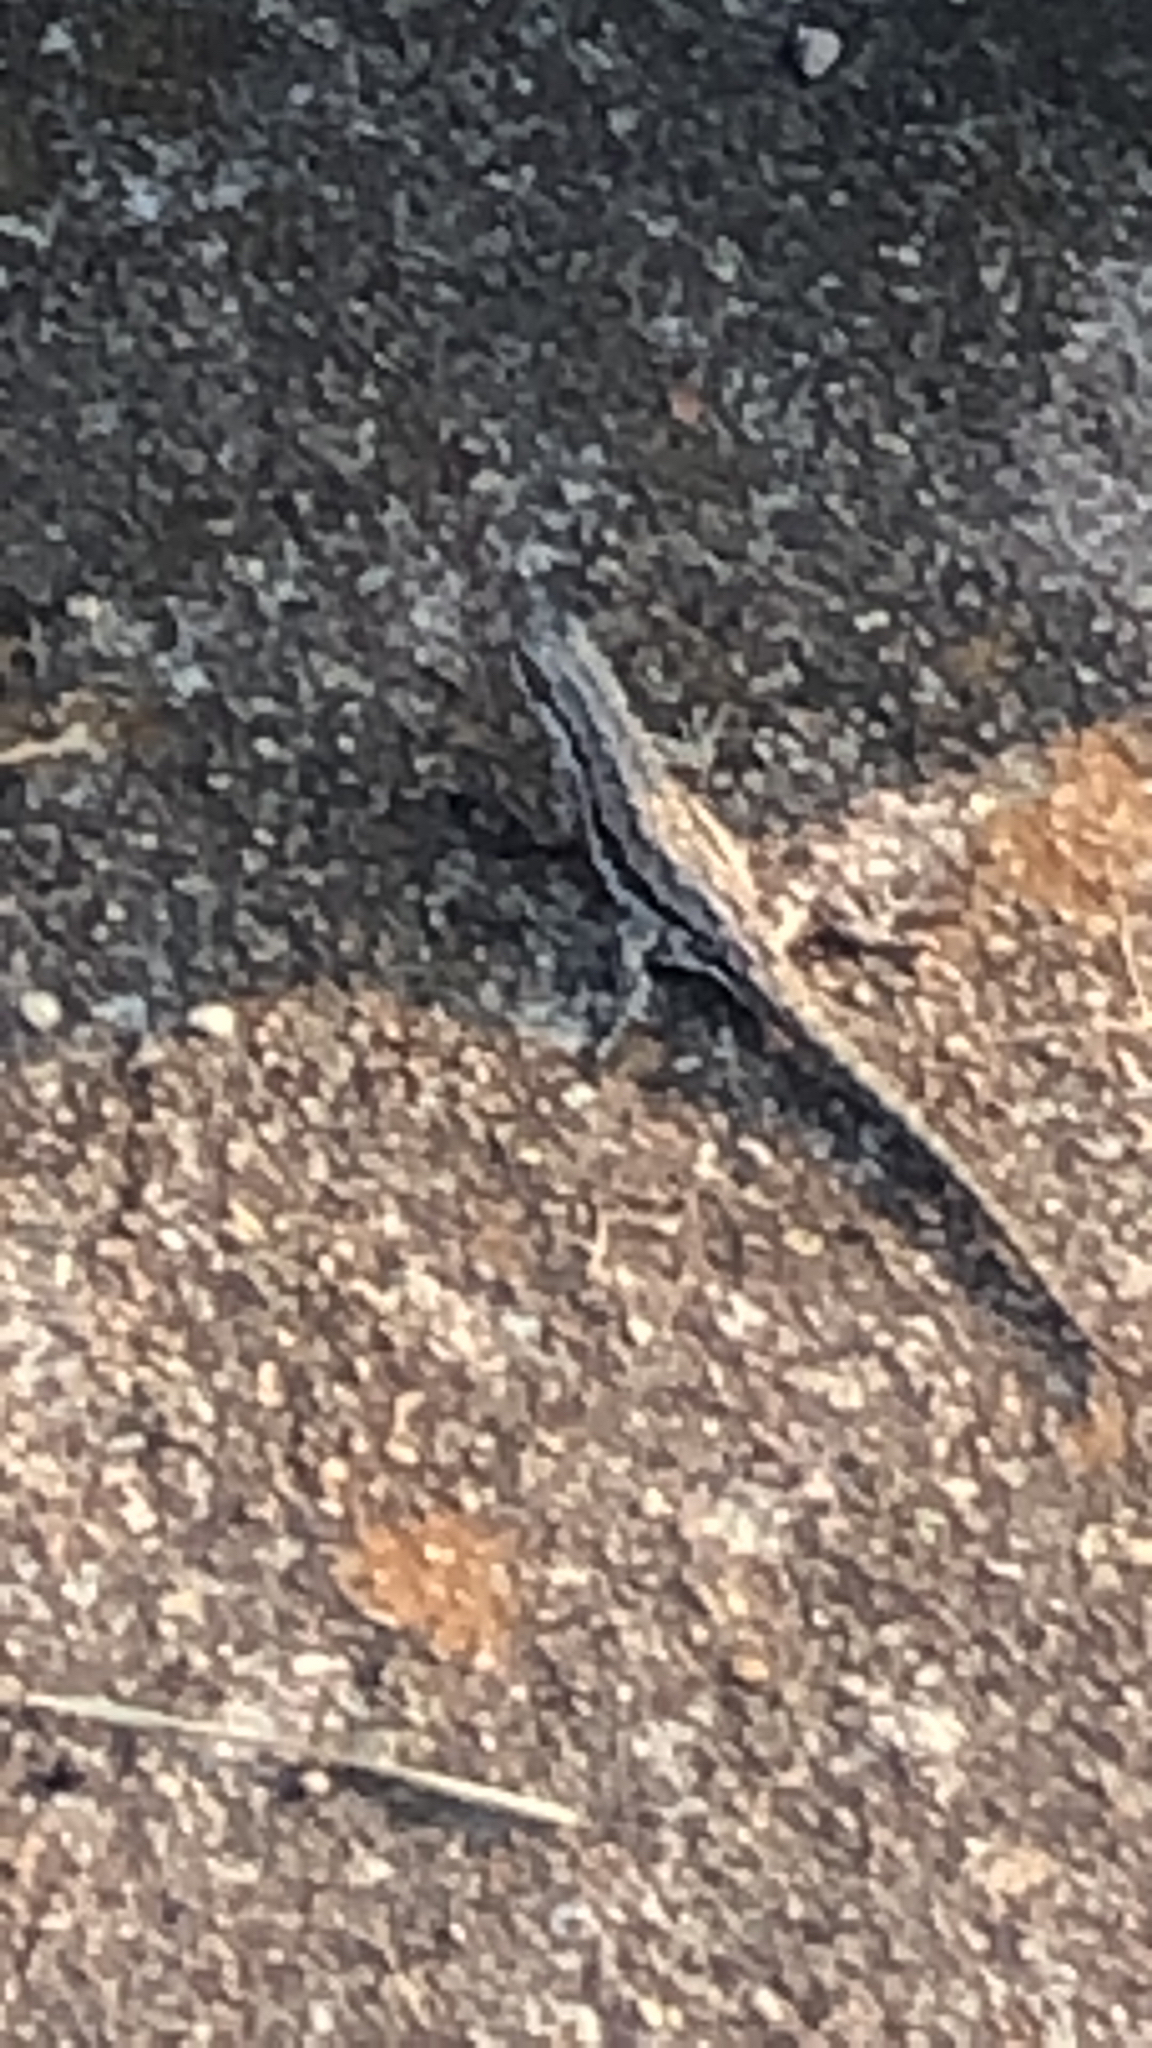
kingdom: Animalia
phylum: Chordata
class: Squamata
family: Phrynosomatidae
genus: Urosaurus
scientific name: Urosaurus ornatus
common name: Ornate tree lizard
